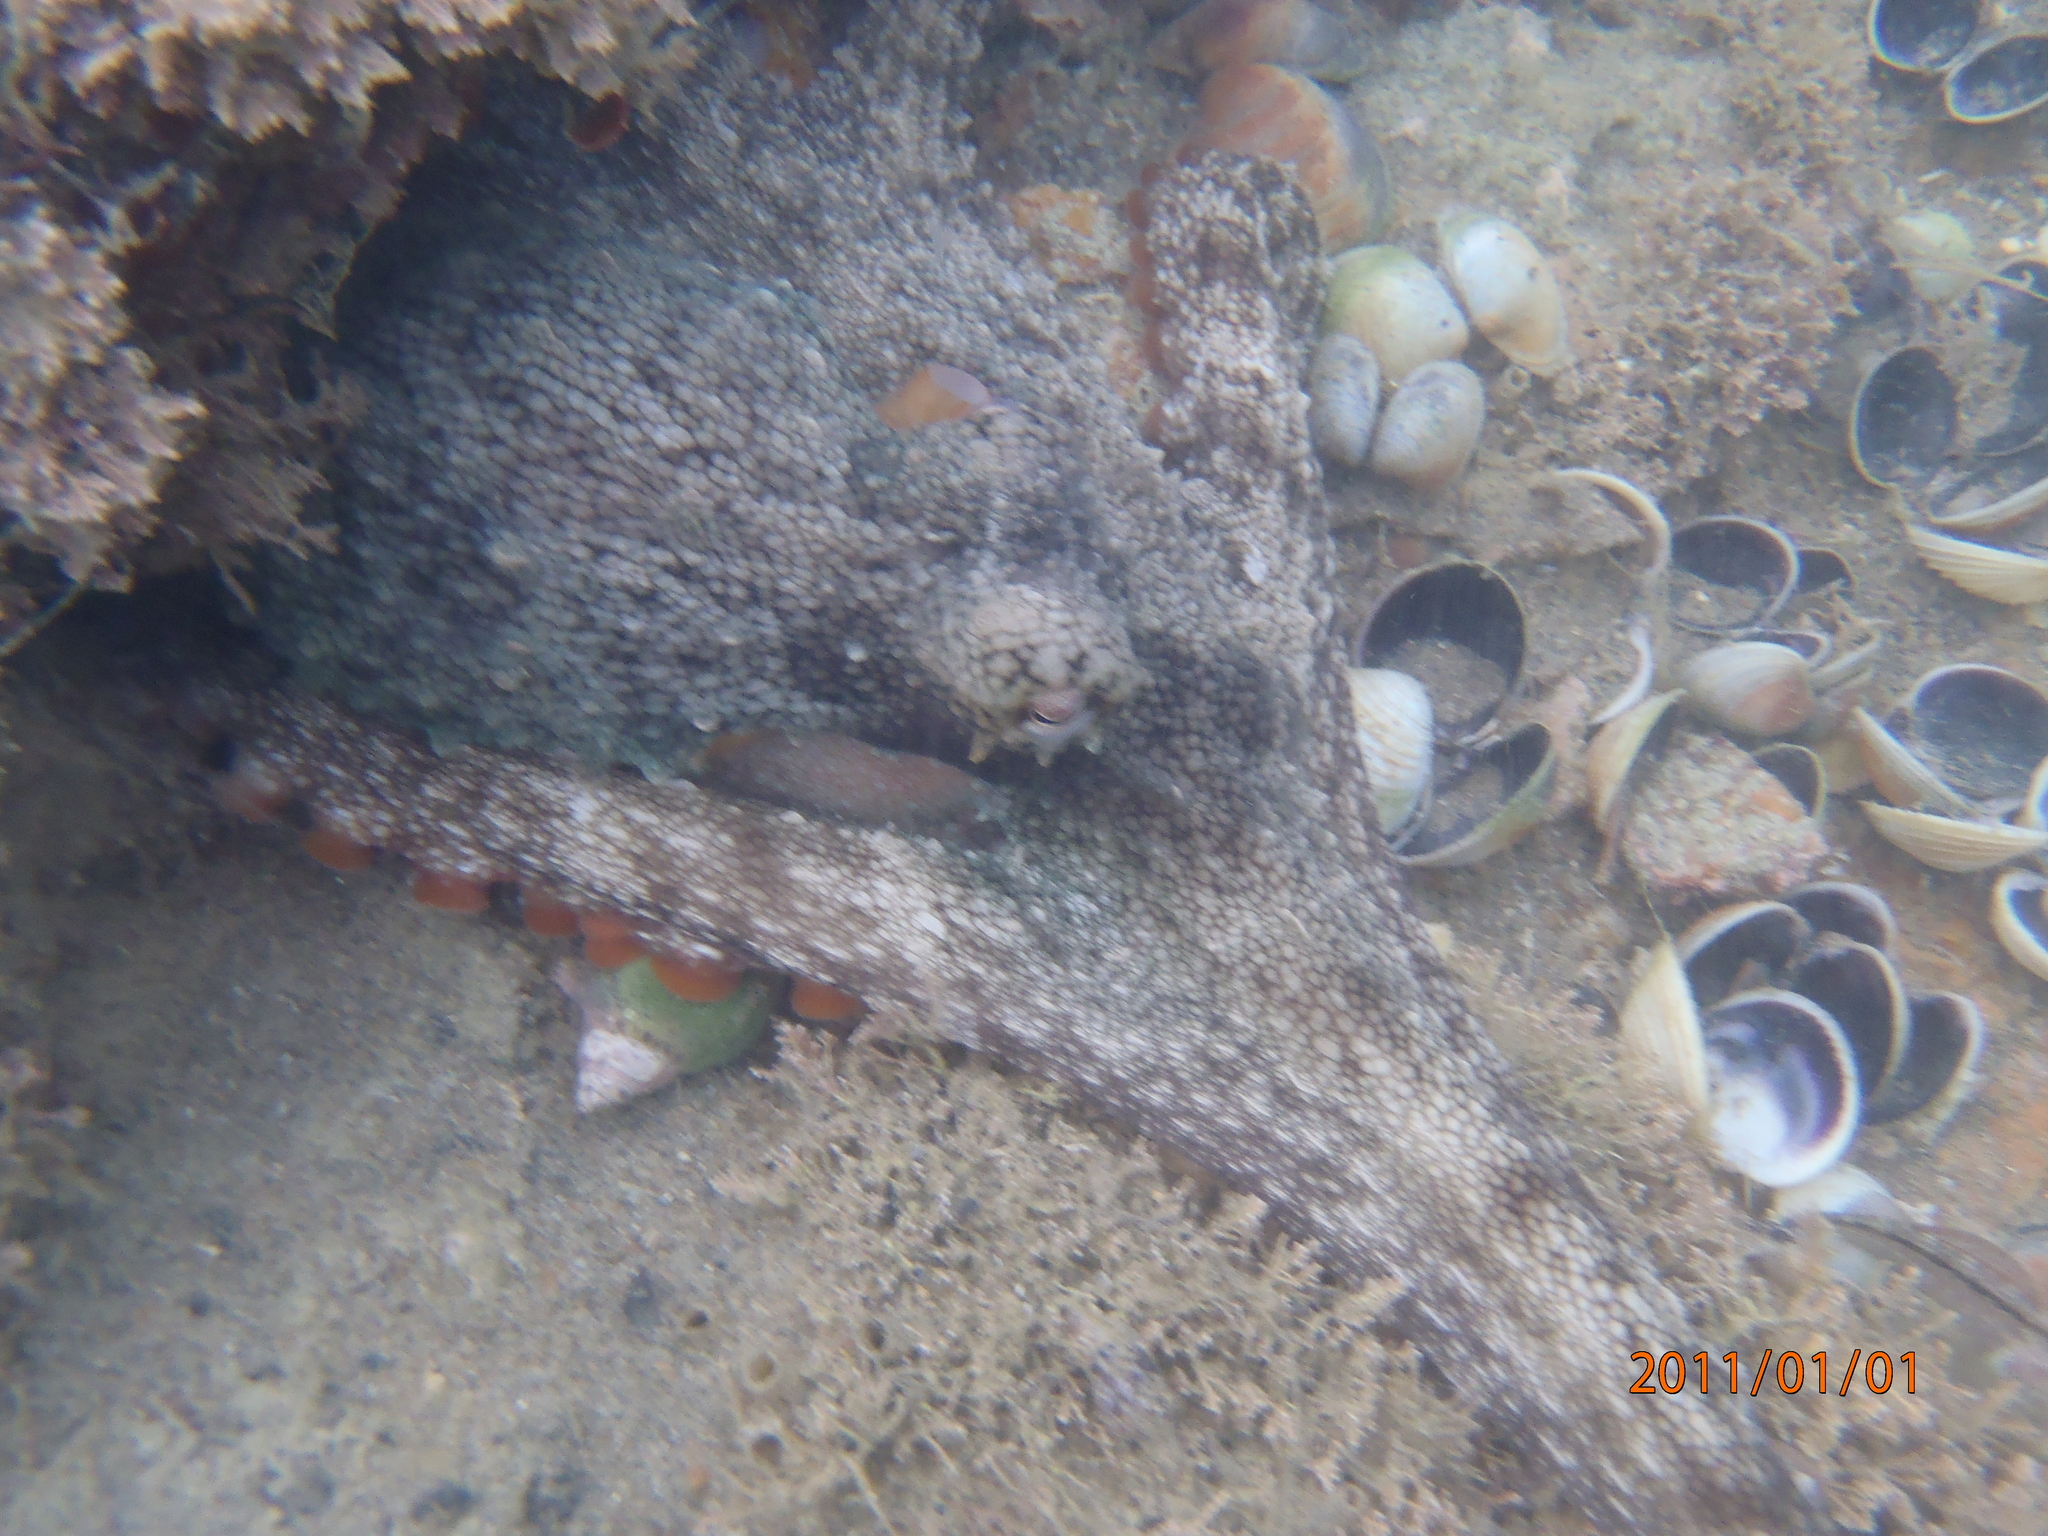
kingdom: Animalia
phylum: Mollusca
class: Cephalopoda
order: Octopoda
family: Octopodidae
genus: Octopus
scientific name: Octopus tetricus
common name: Sydney octopus
